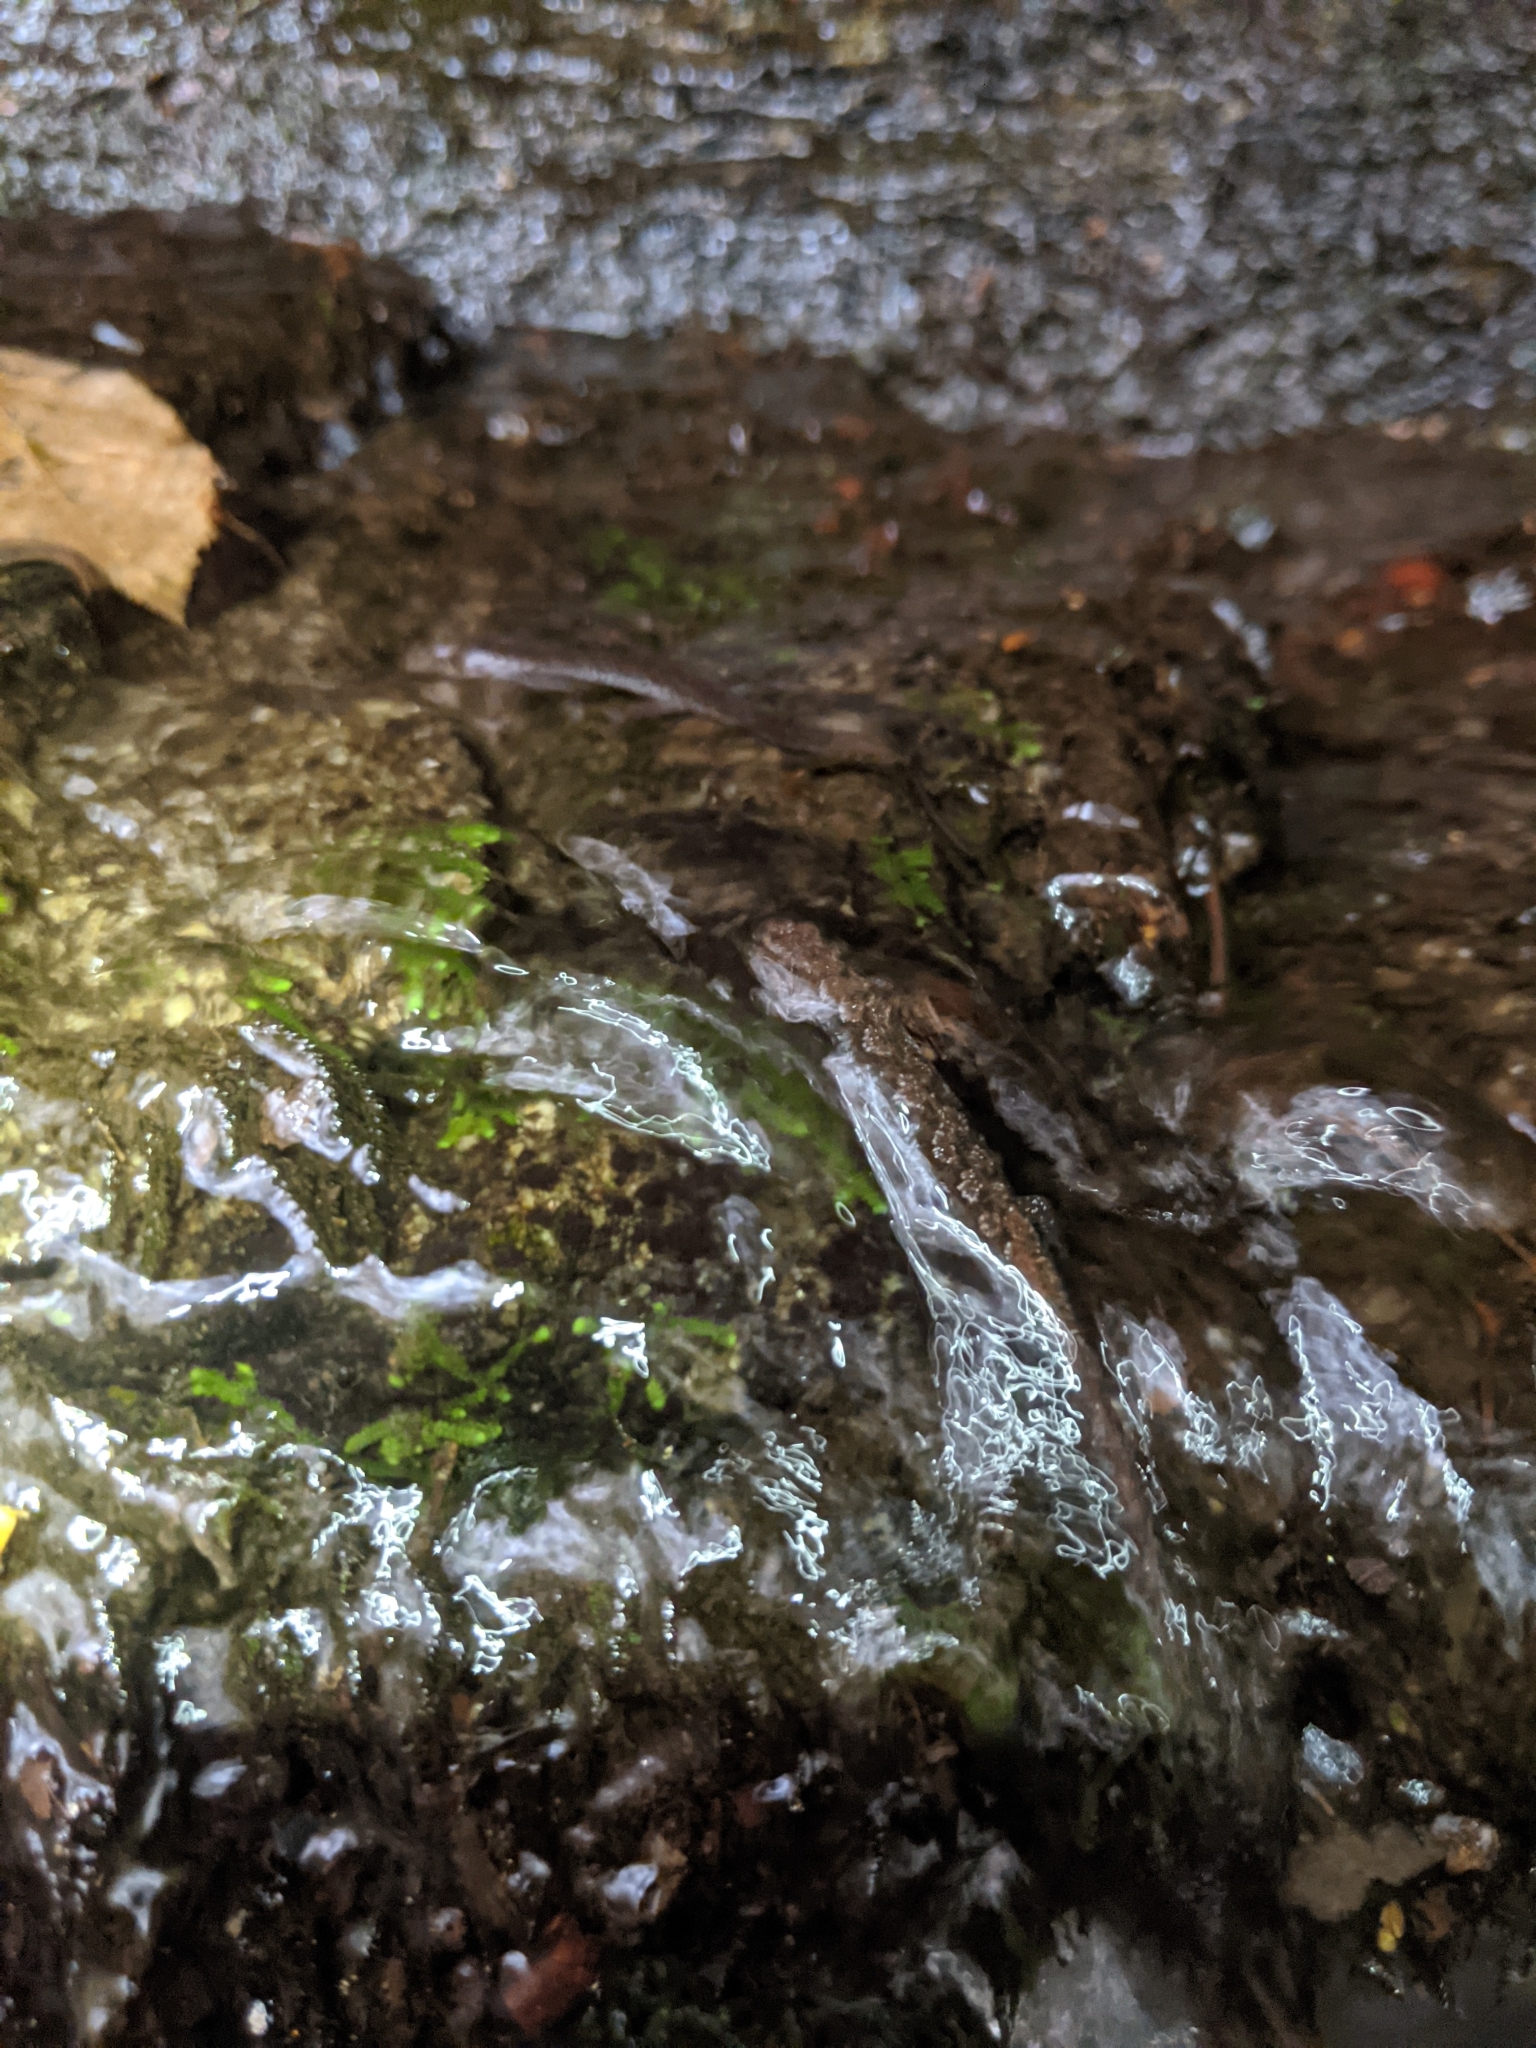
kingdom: Animalia
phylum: Chordata
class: Amphibia
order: Caudata
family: Plethodontidae
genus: Desmognathus
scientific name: Desmognathus monticola
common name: Seal salamander
